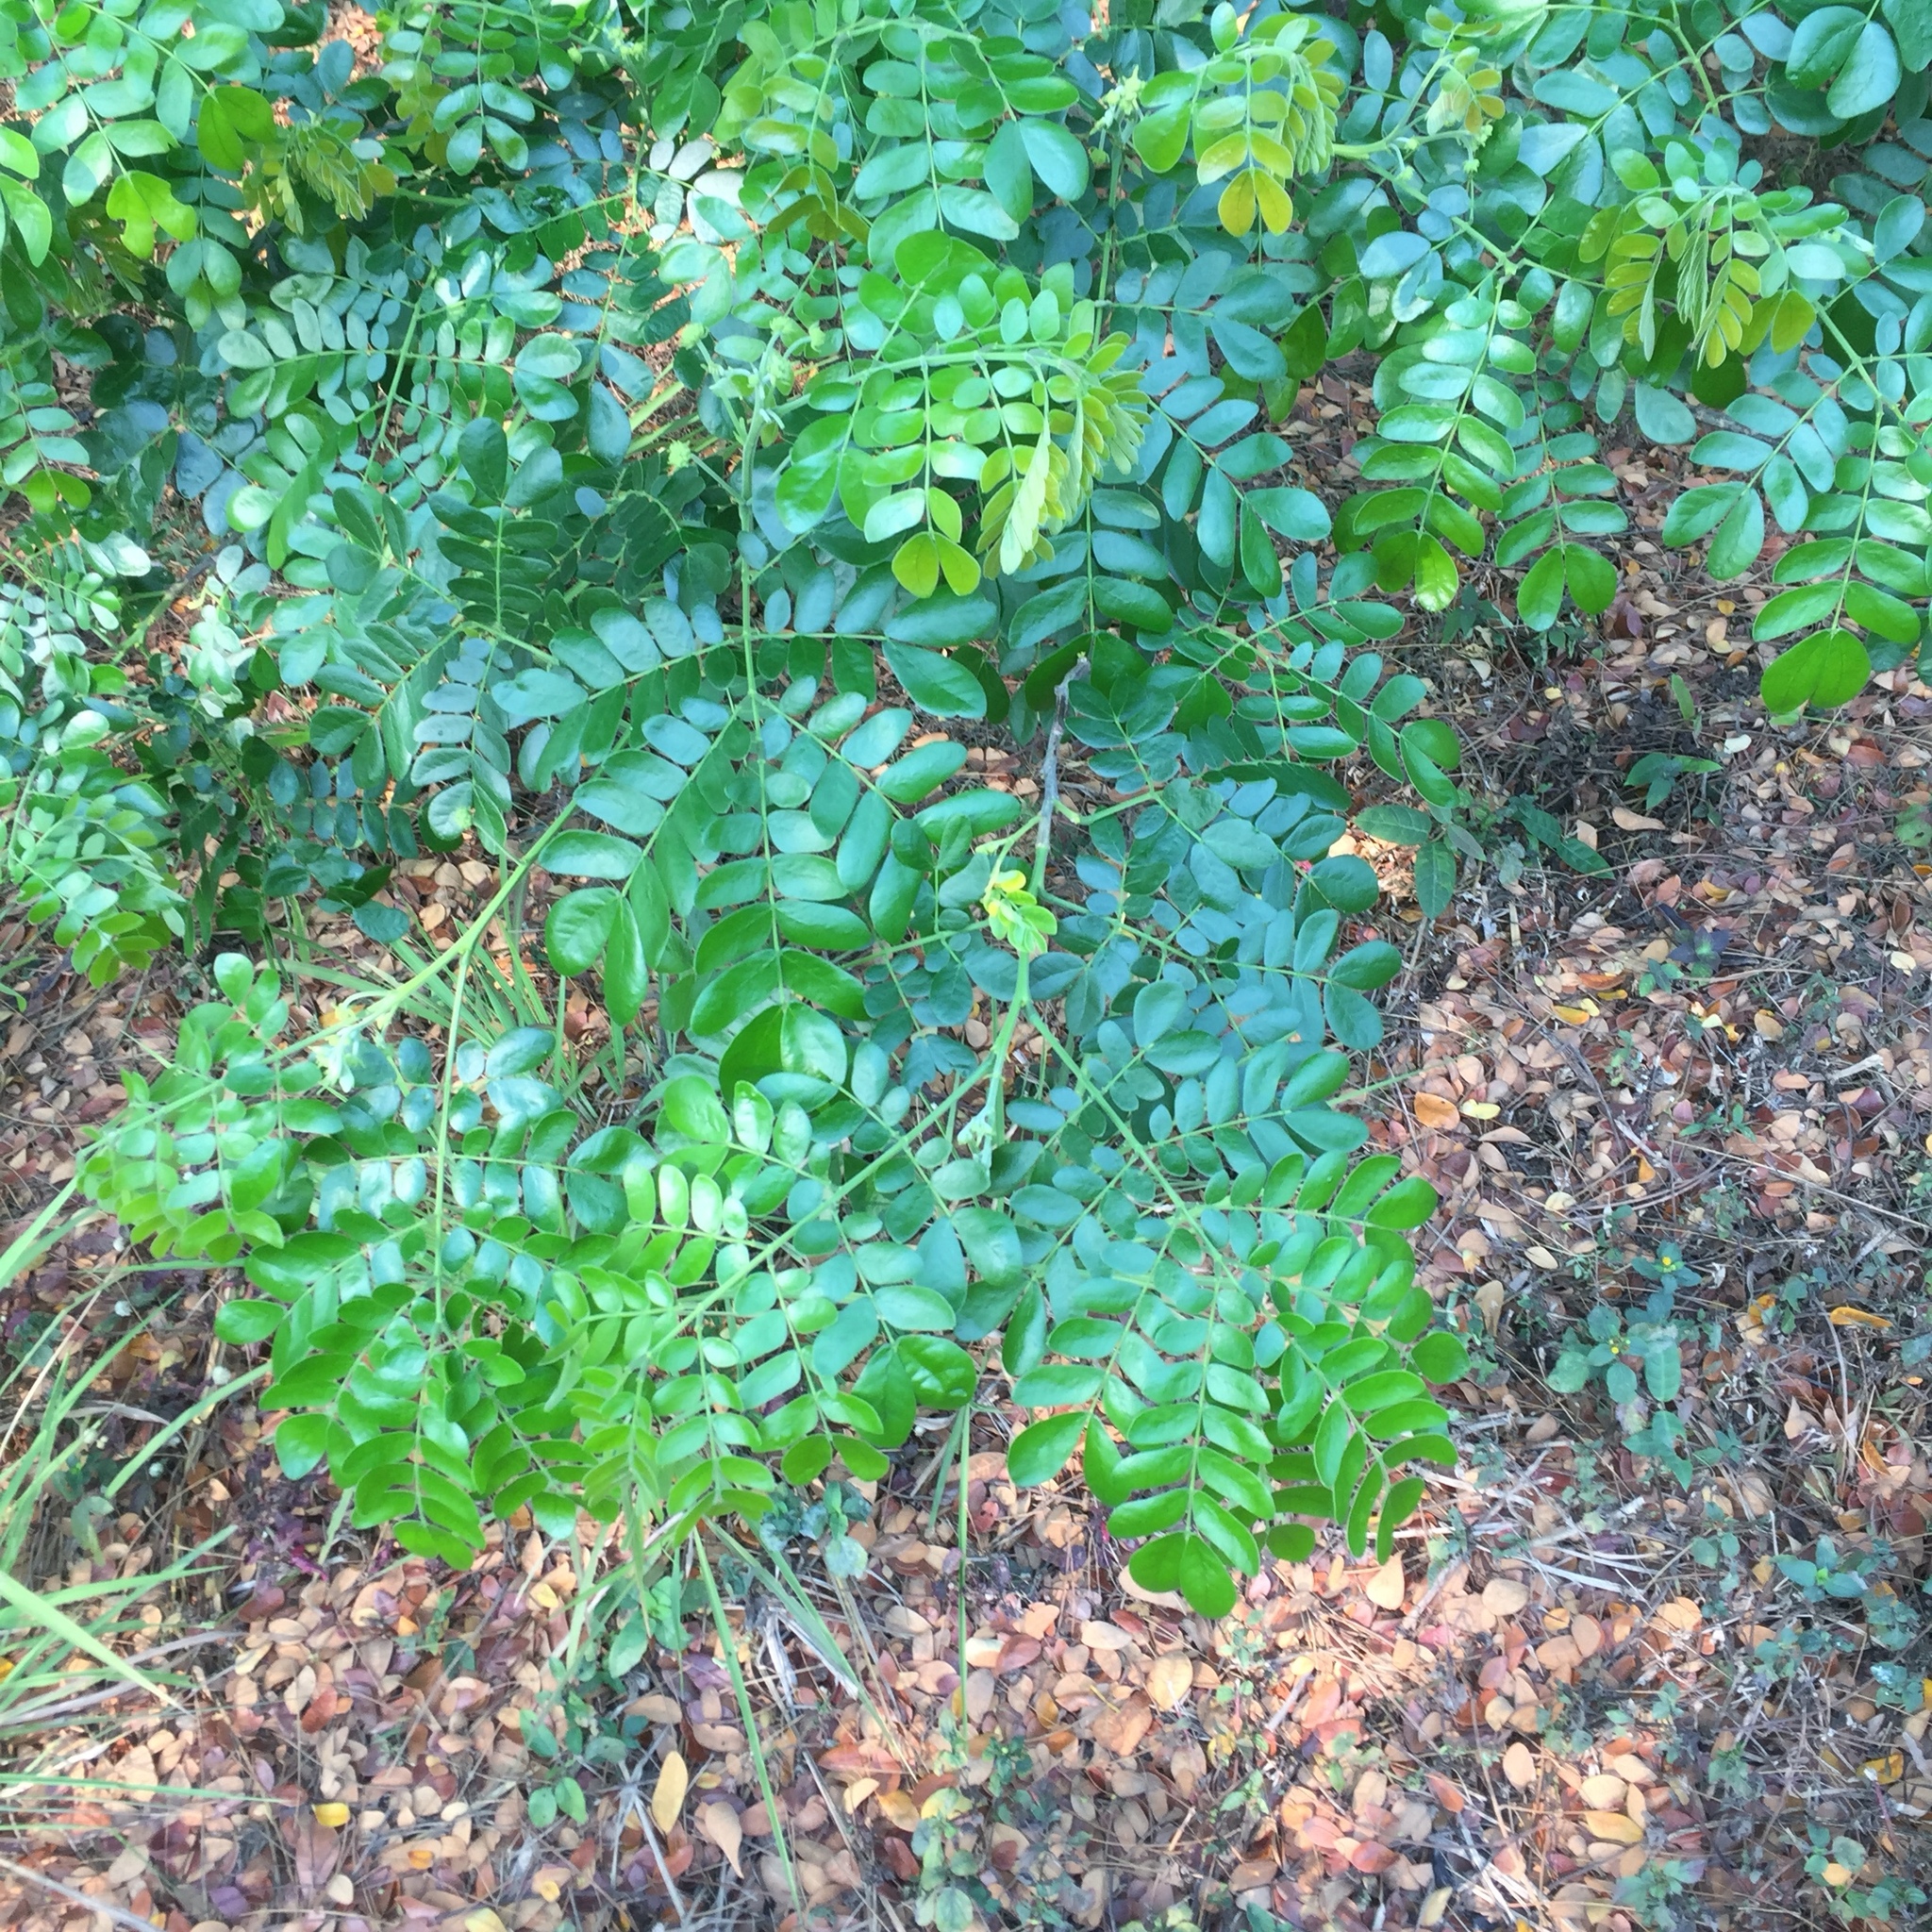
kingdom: Plantae
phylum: Tracheophyta
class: Magnoliopsida
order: Fabales
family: Fabaceae
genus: Samanea
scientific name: Samanea saman
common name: Raintree
